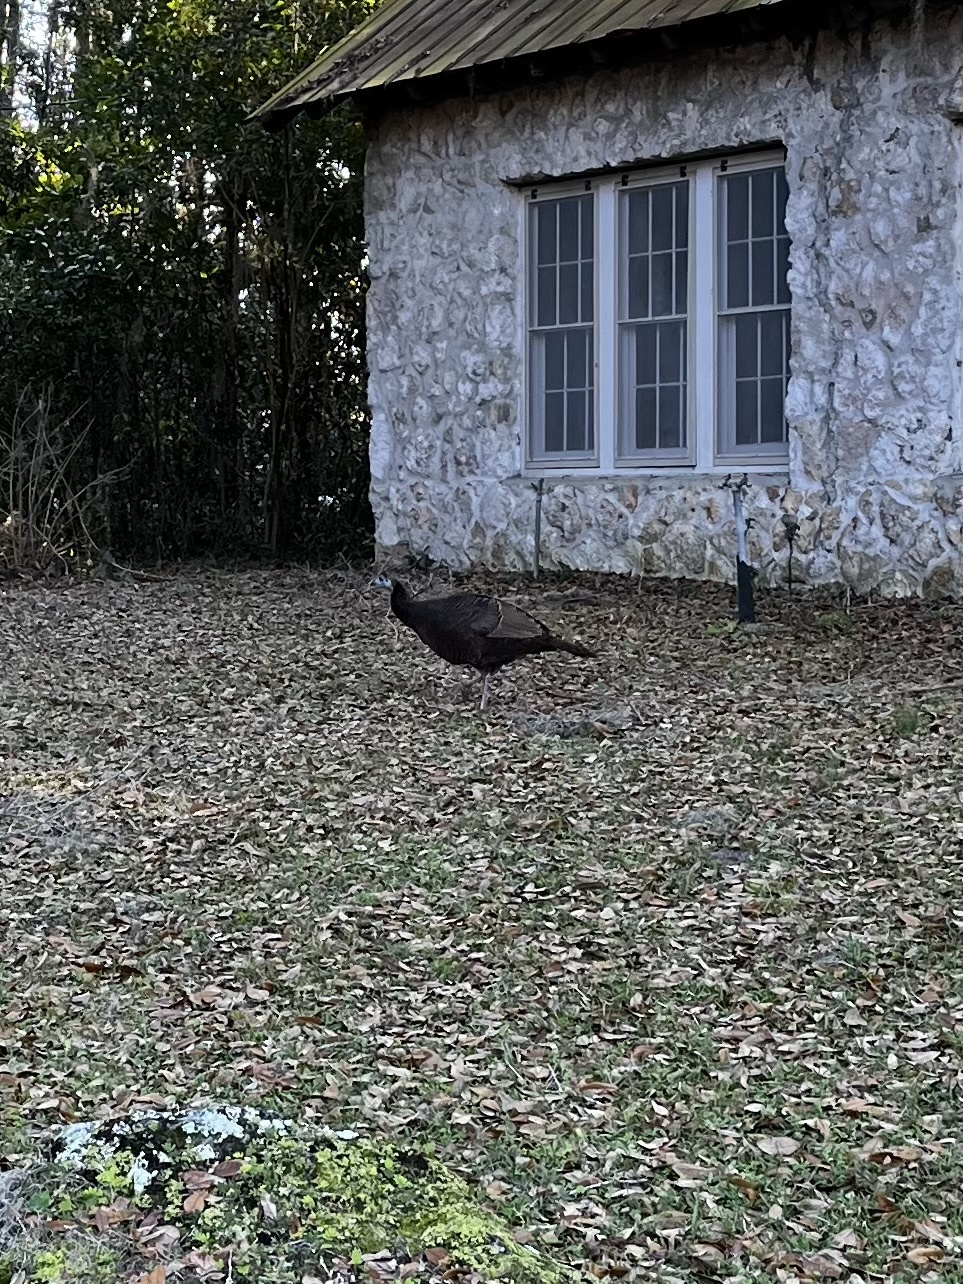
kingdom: Animalia
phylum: Chordata
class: Aves
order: Galliformes
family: Phasianidae
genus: Meleagris
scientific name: Meleagris gallopavo
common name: Wild turkey
